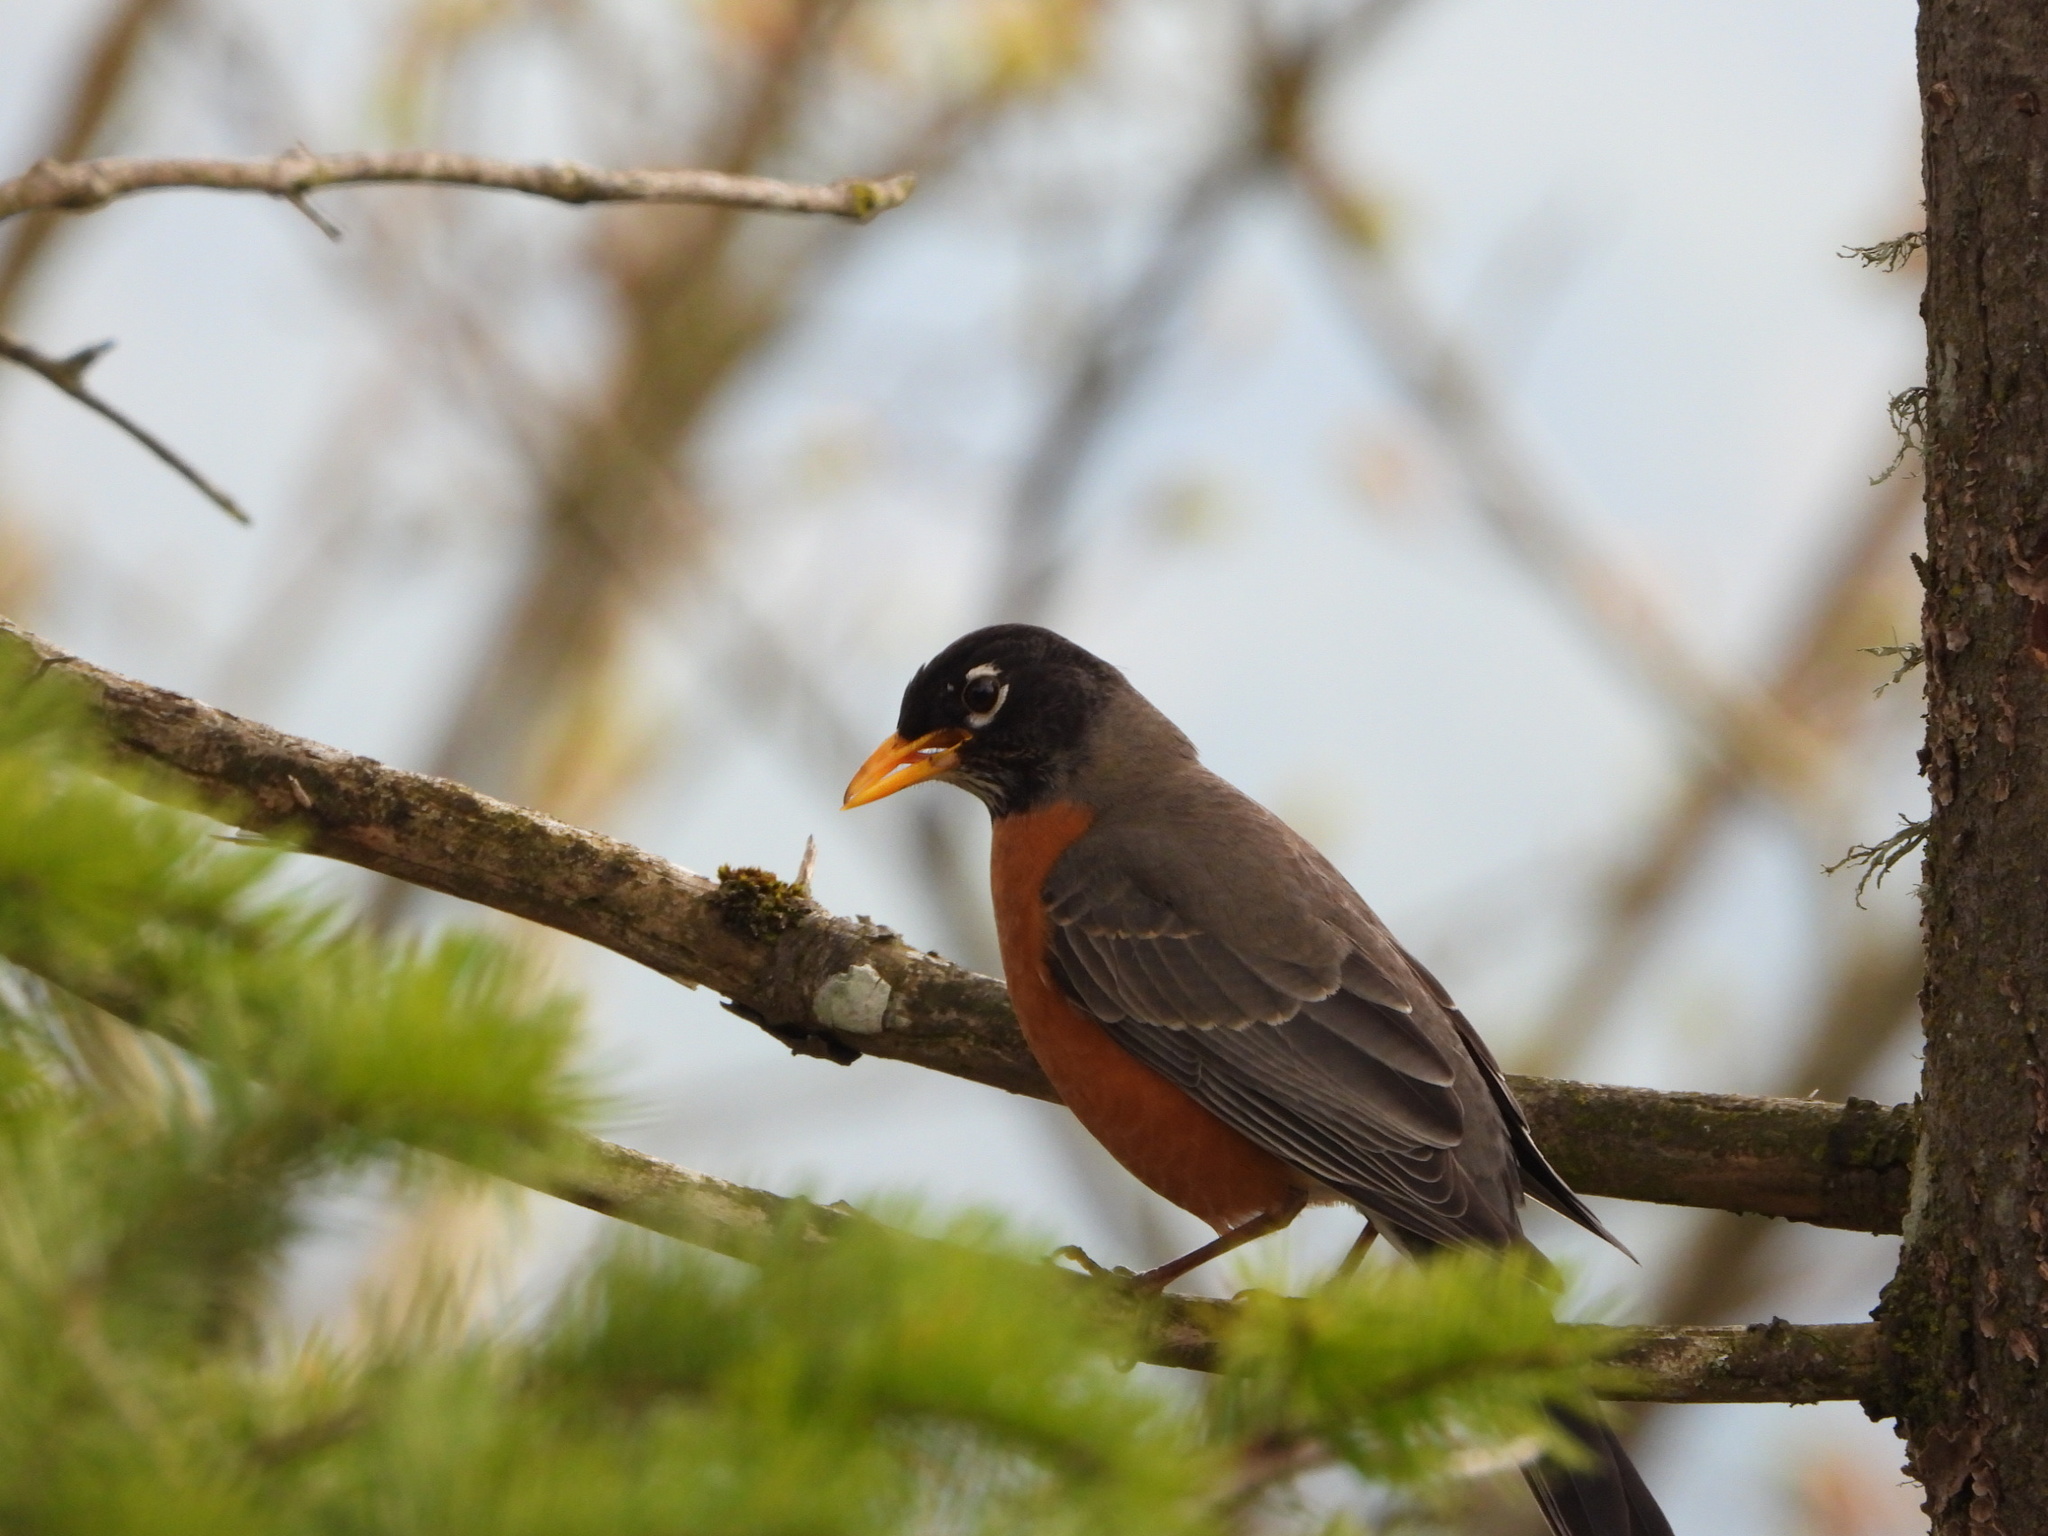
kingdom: Animalia
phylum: Chordata
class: Aves
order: Passeriformes
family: Turdidae
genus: Turdus
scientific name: Turdus migratorius
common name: American robin
